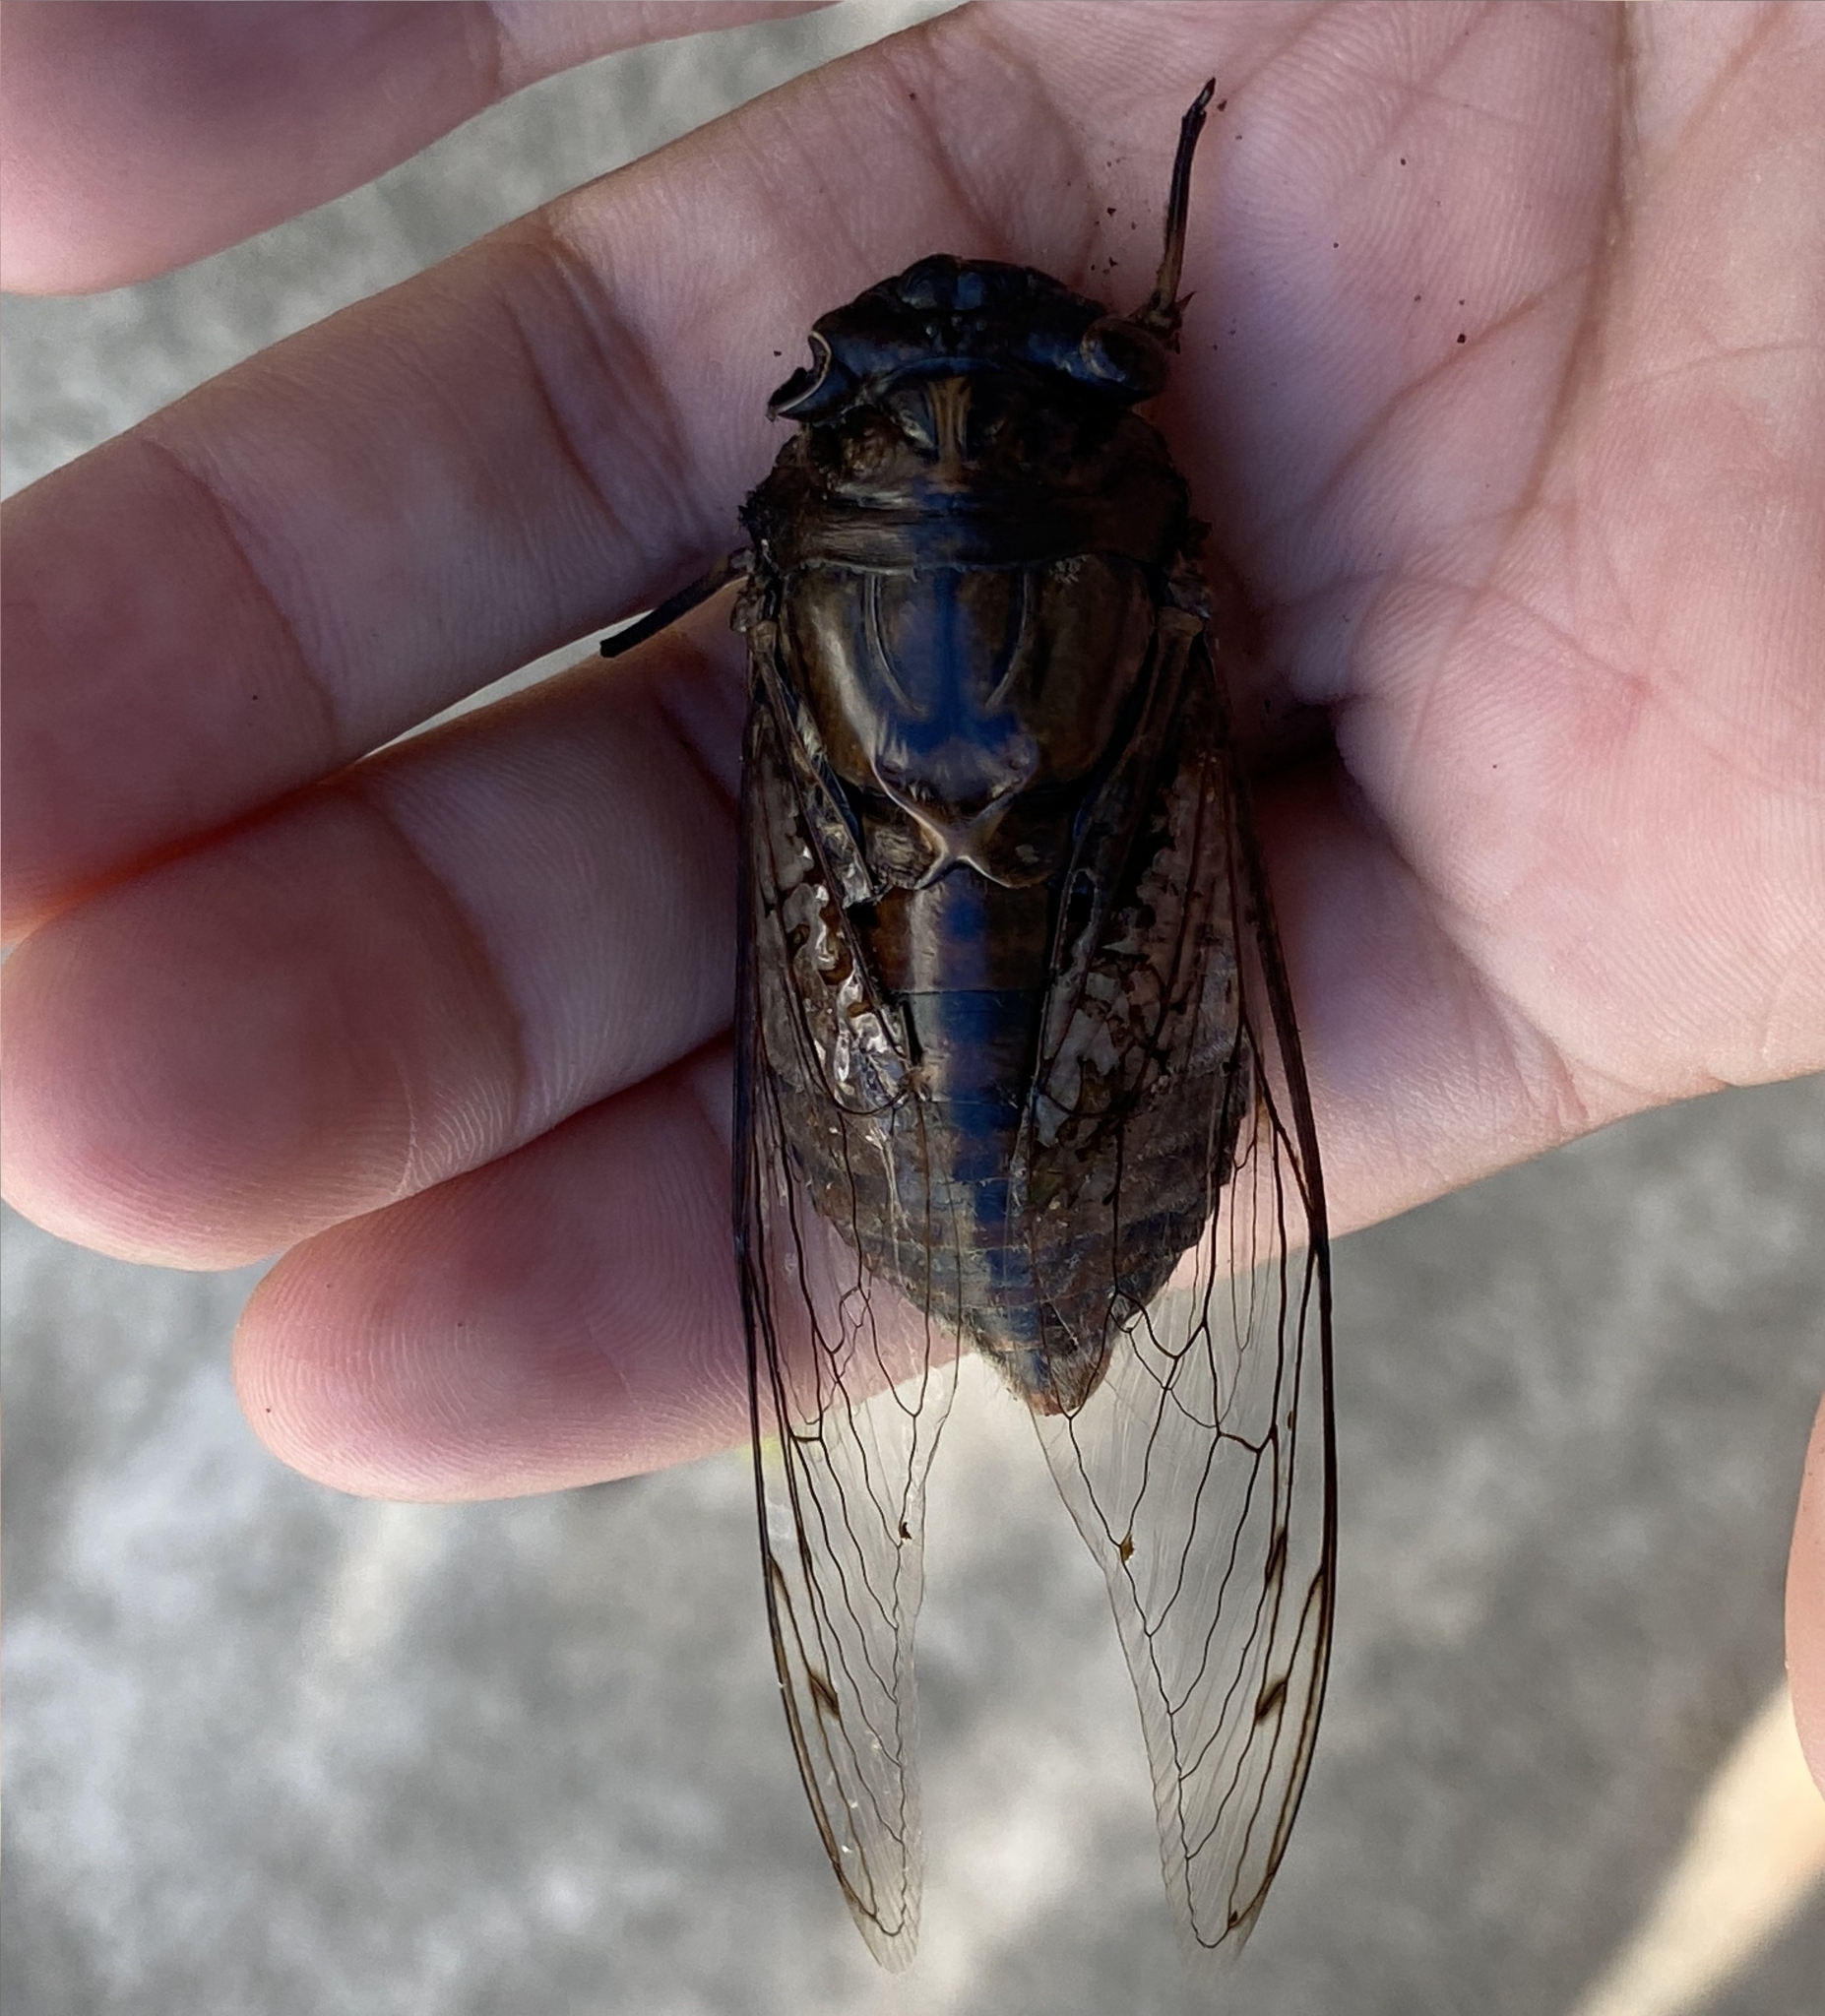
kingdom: Animalia
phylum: Arthropoda
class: Insecta
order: Hemiptera
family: Cicadidae
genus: Quesada
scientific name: Quesada gigas
